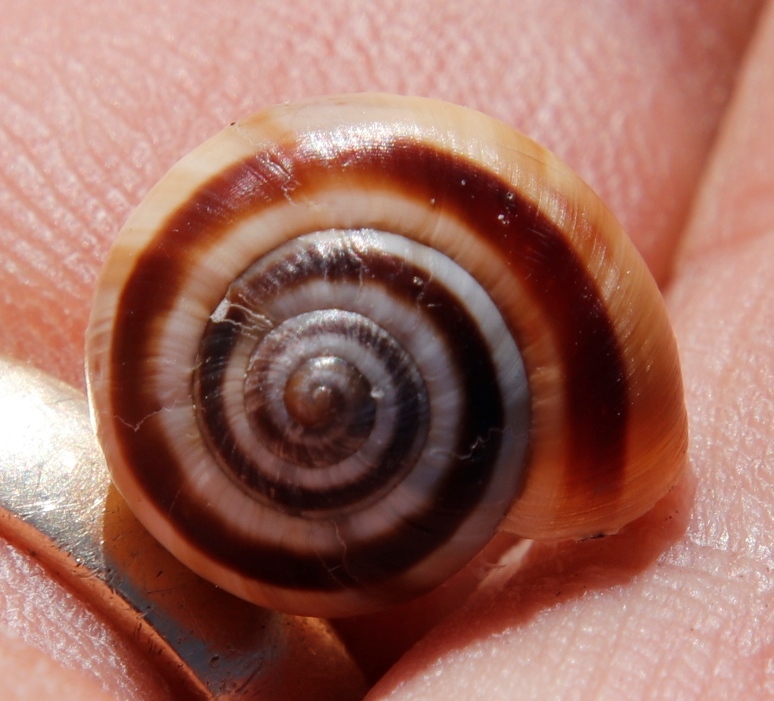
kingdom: Animalia
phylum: Mollusca
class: Gastropoda
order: Stylommatophora
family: Charopidae
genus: Phortion
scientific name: Phortion menkeanum
